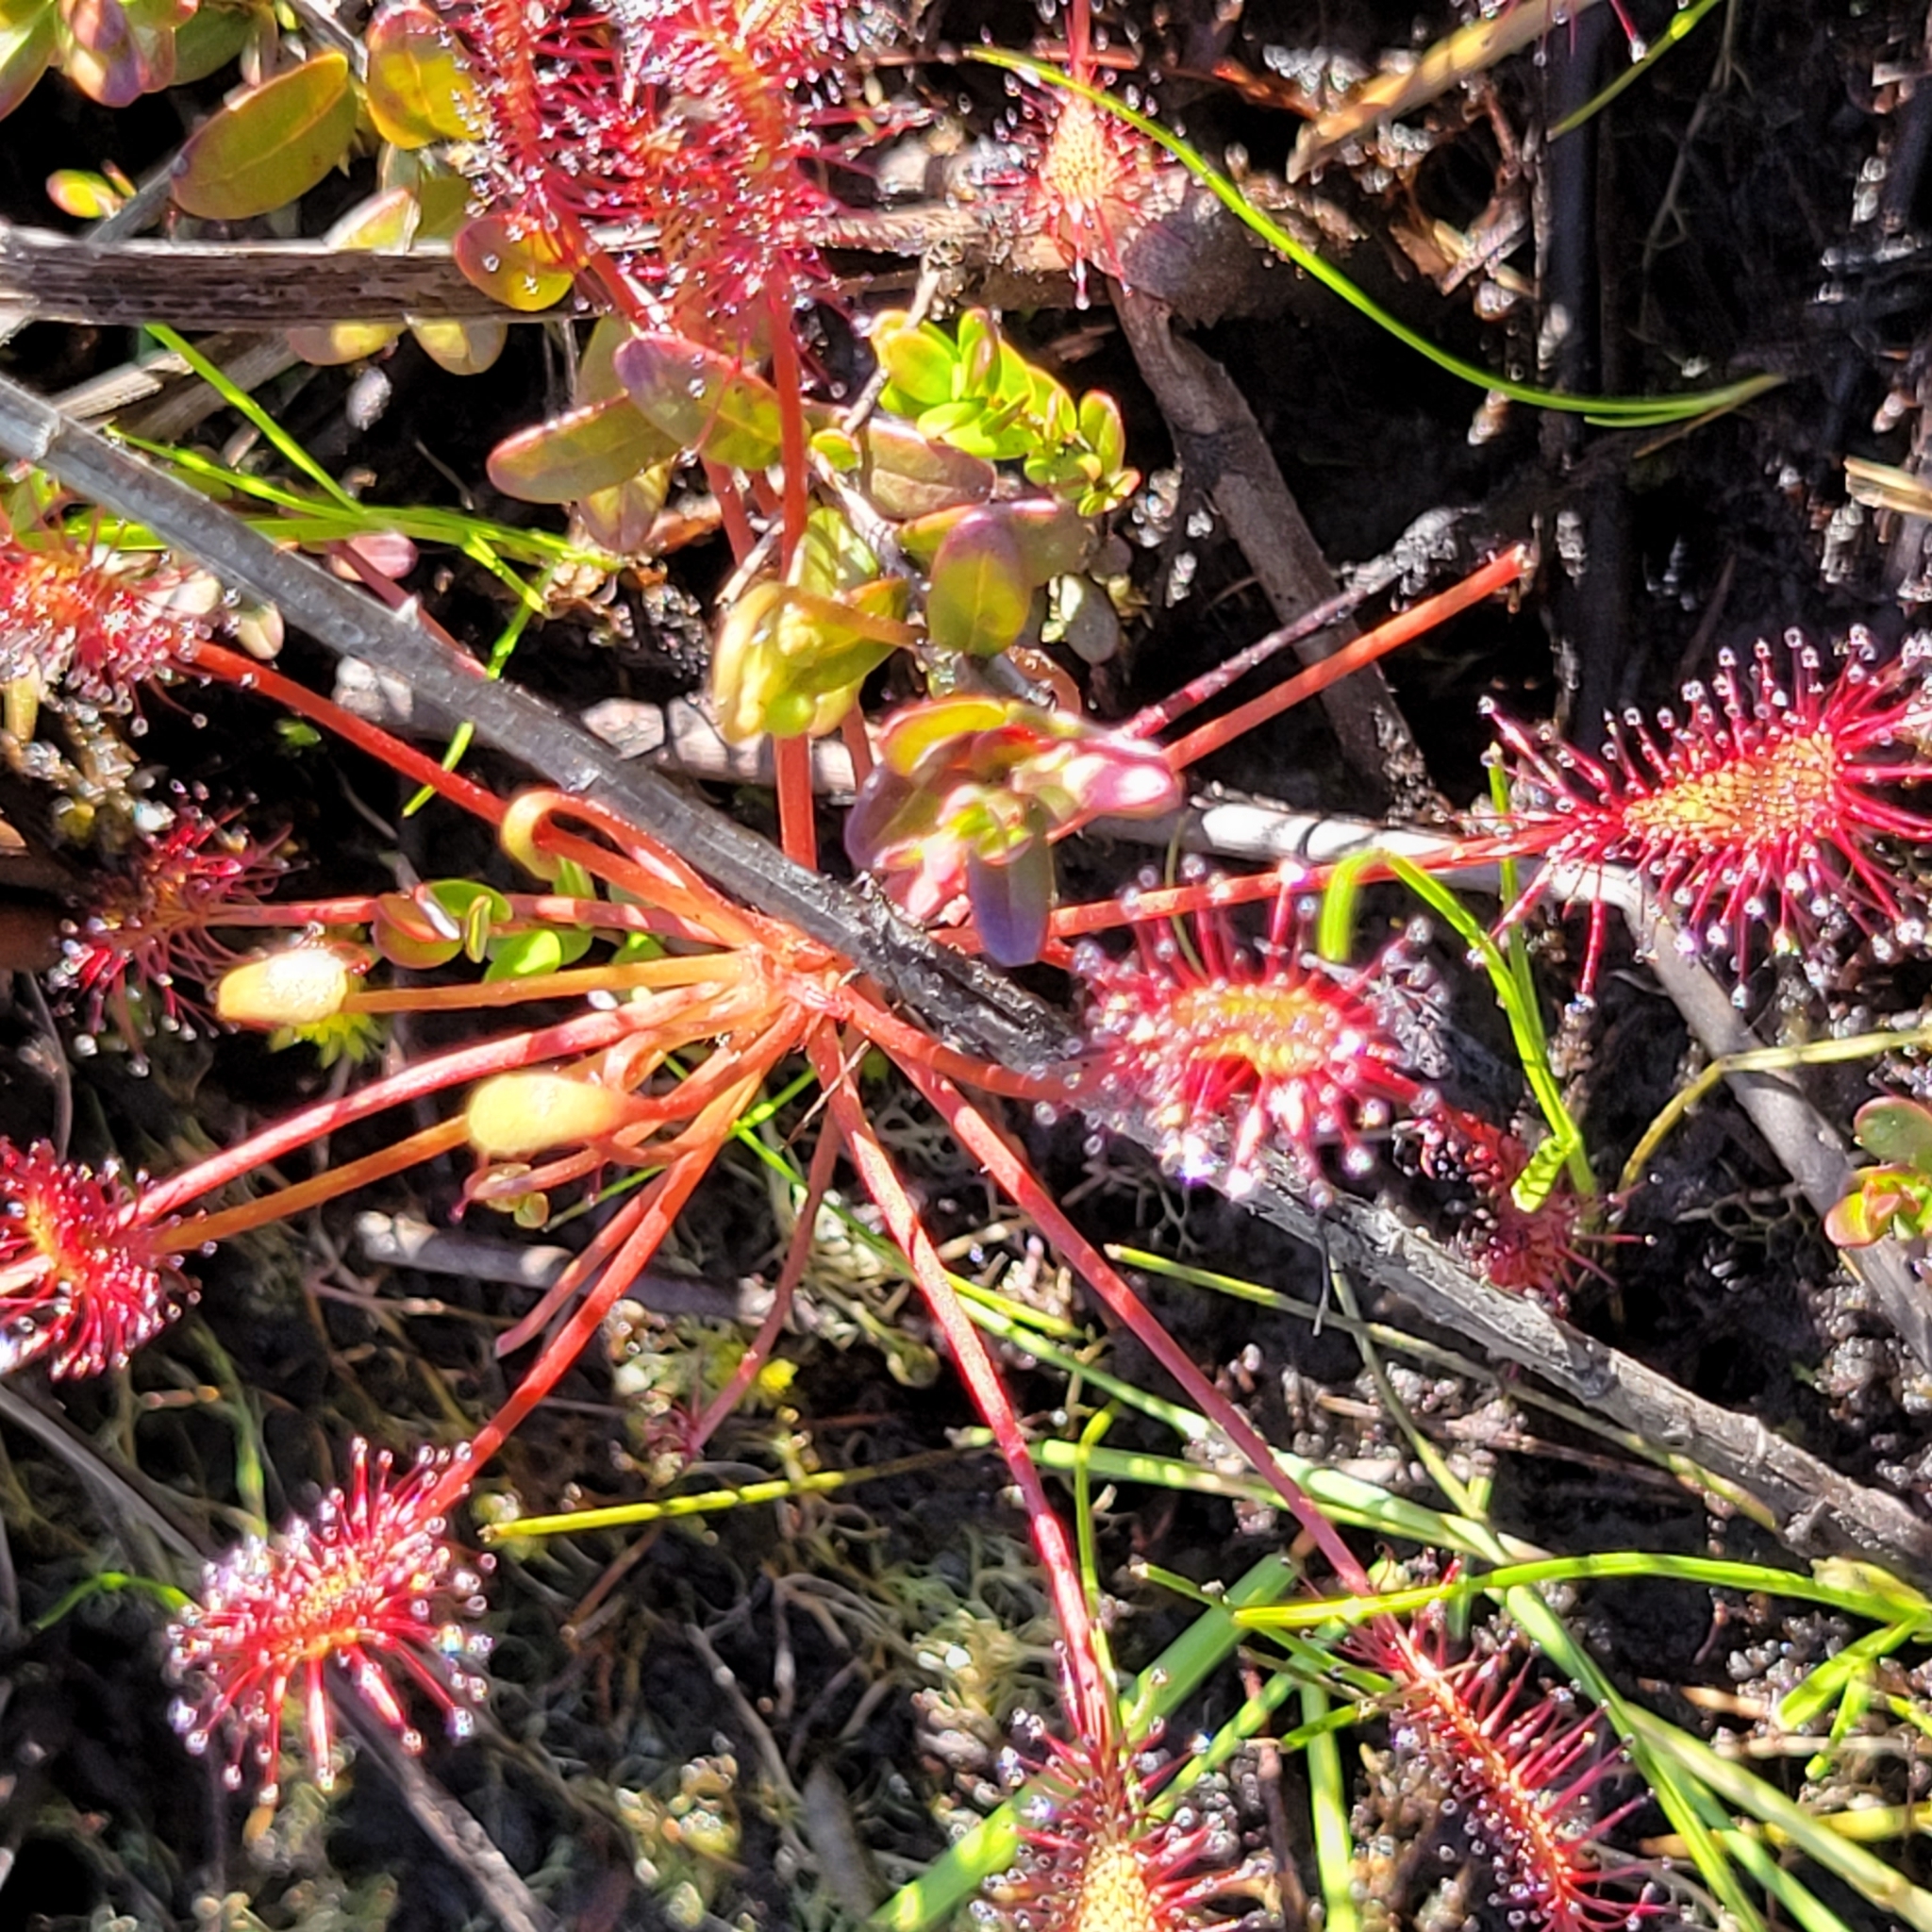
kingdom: Plantae
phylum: Tracheophyta
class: Magnoliopsida
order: Caryophyllales
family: Droseraceae
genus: Drosera
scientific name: Drosera intermedia
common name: Oblong-leaved sundew
